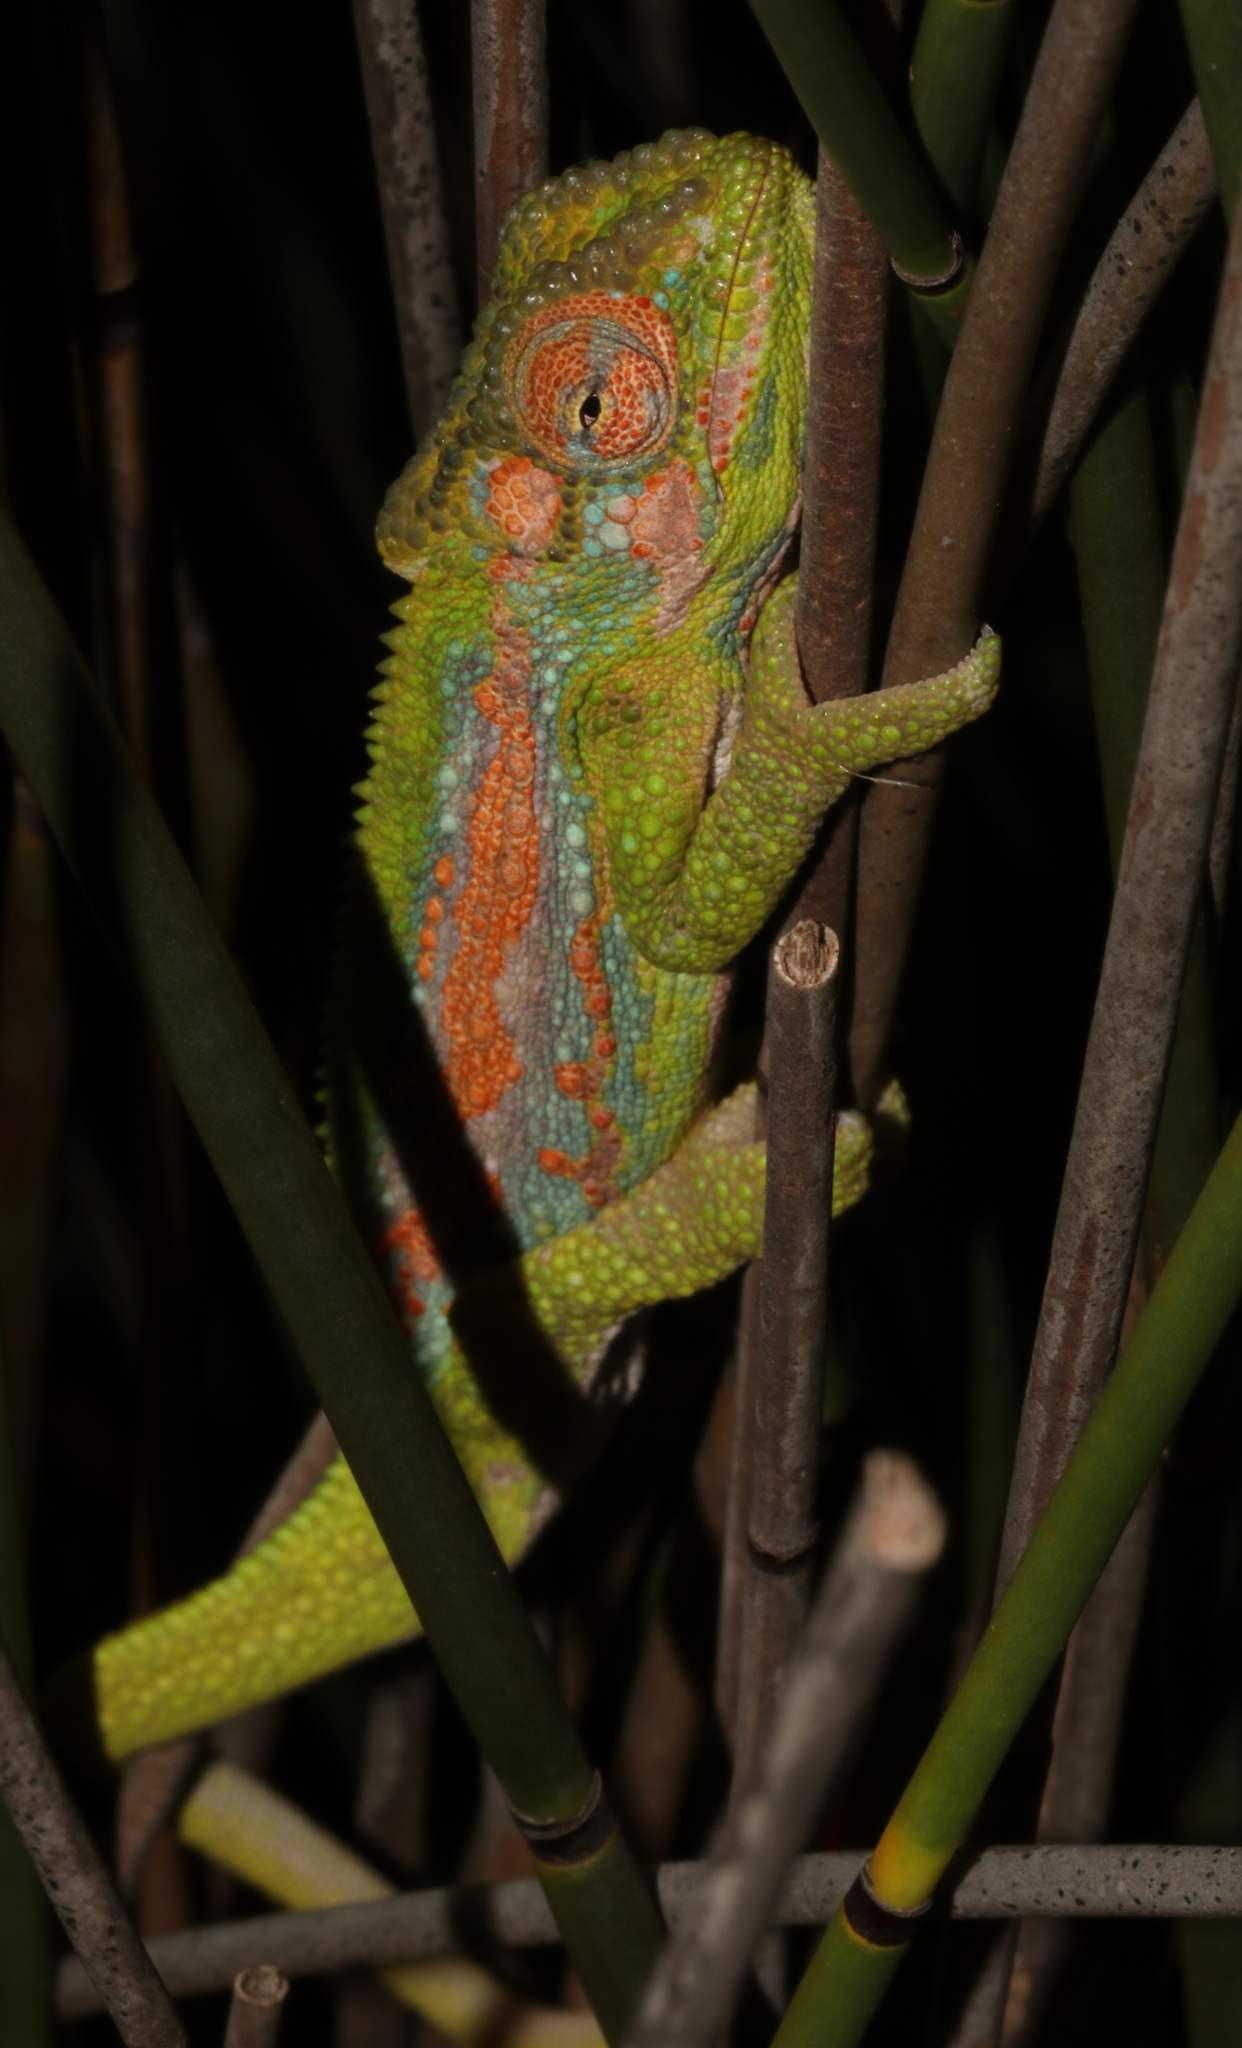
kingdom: Animalia
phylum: Chordata
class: Squamata
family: Chamaeleonidae
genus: Bradypodion
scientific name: Bradypodion pumilum
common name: Cape dwarf chameleon
